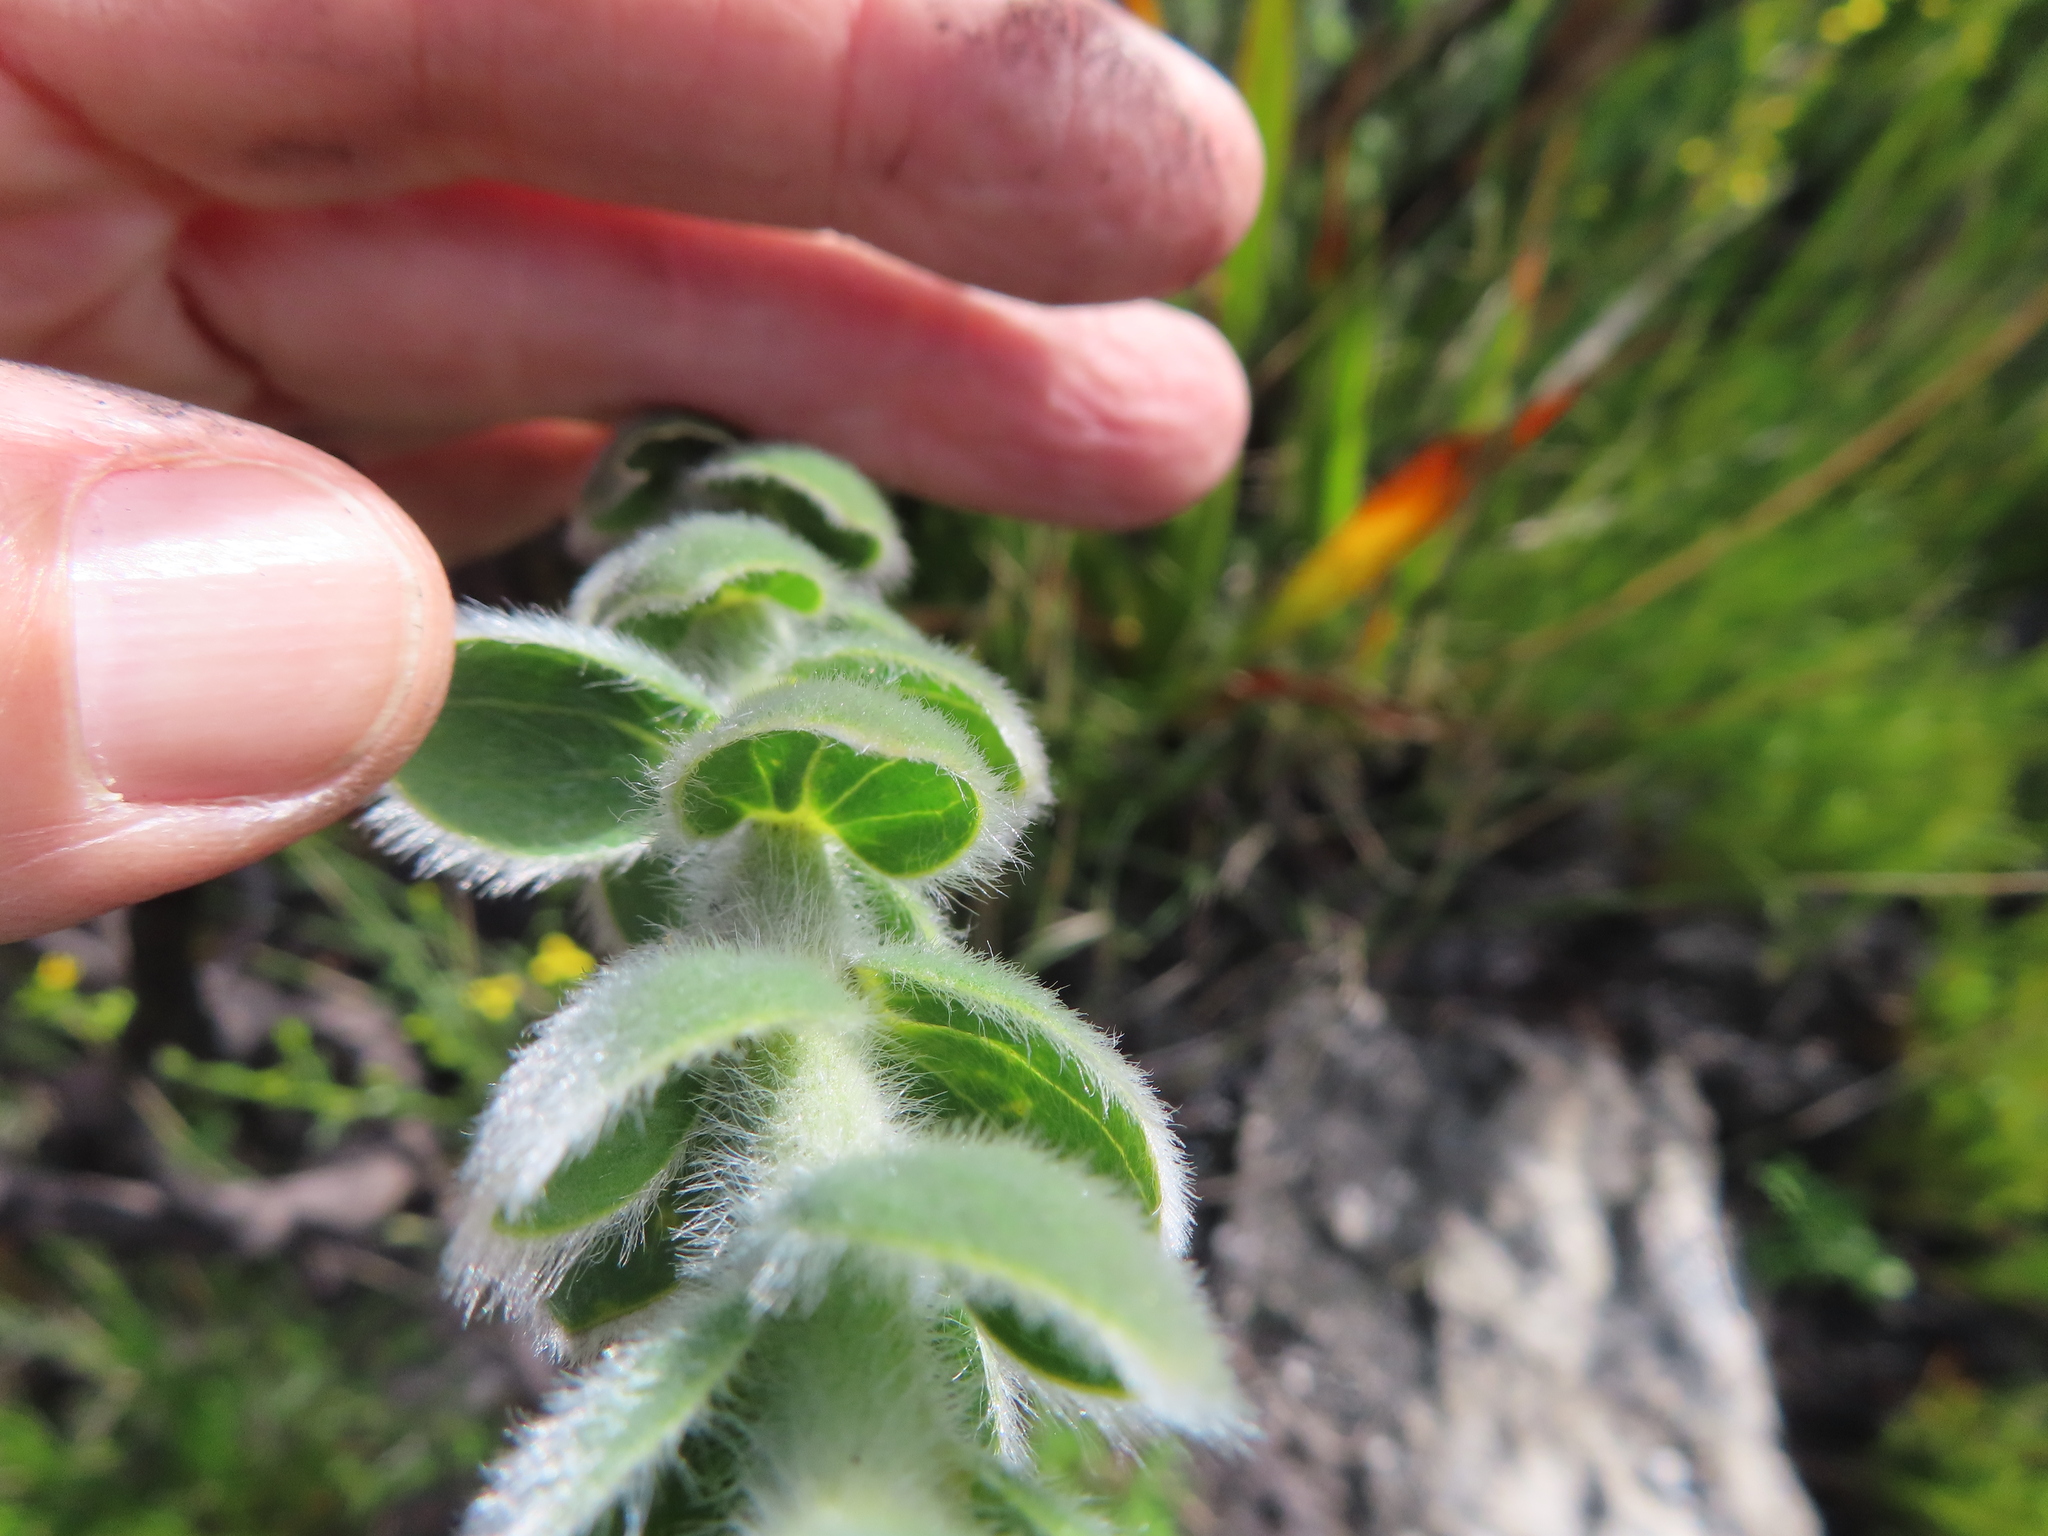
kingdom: Plantae
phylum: Tracheophyta
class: Magnoliopsida
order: Fabales
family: Fabaceae
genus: Liparia
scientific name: Liparia vestita
